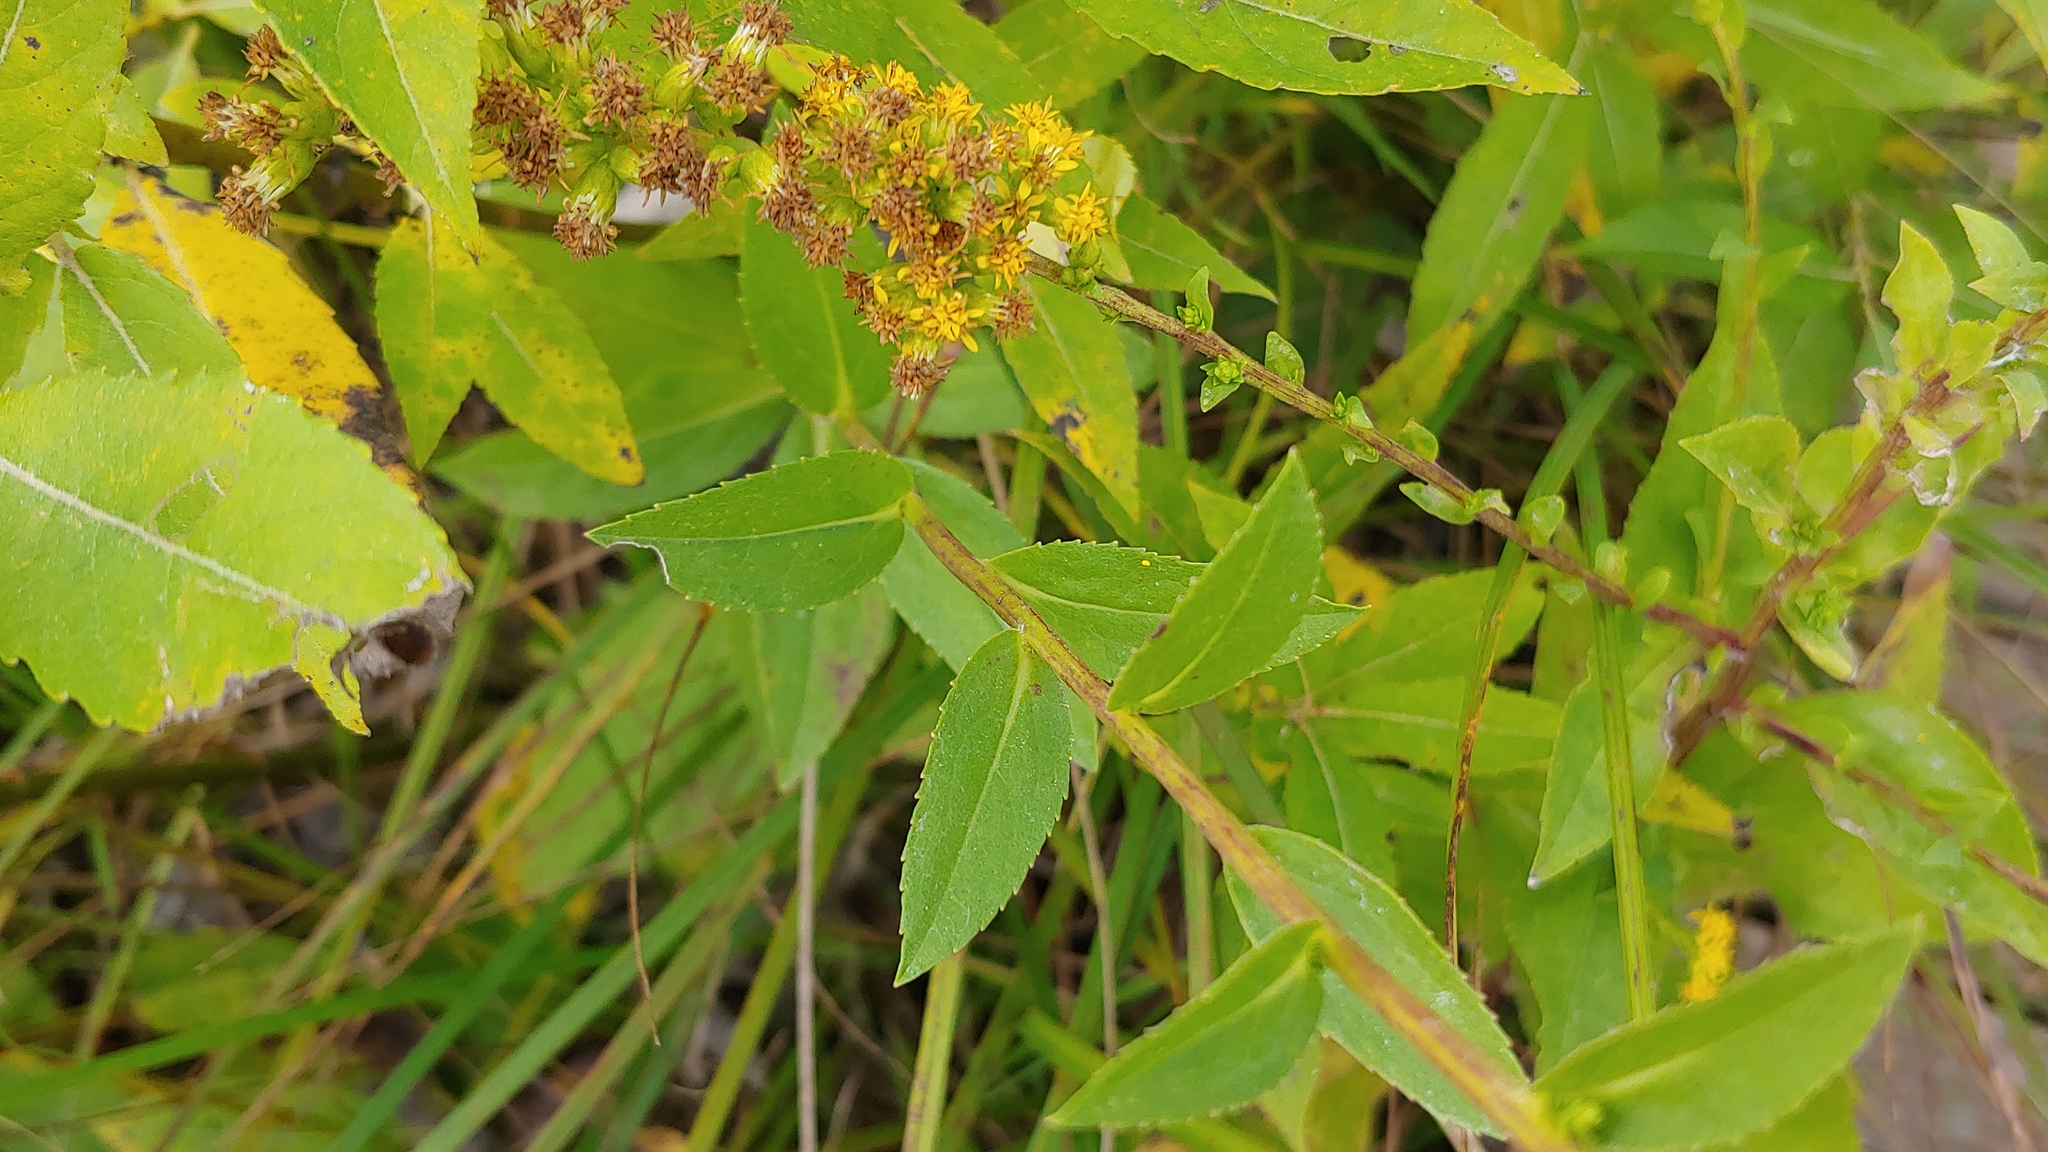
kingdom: Plantae
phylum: Tracheophyta
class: Magnoliopsida
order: Asterales
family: Asteraceae
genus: Solidago
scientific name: Solidago patula
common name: Rough-leaf goldenrod
